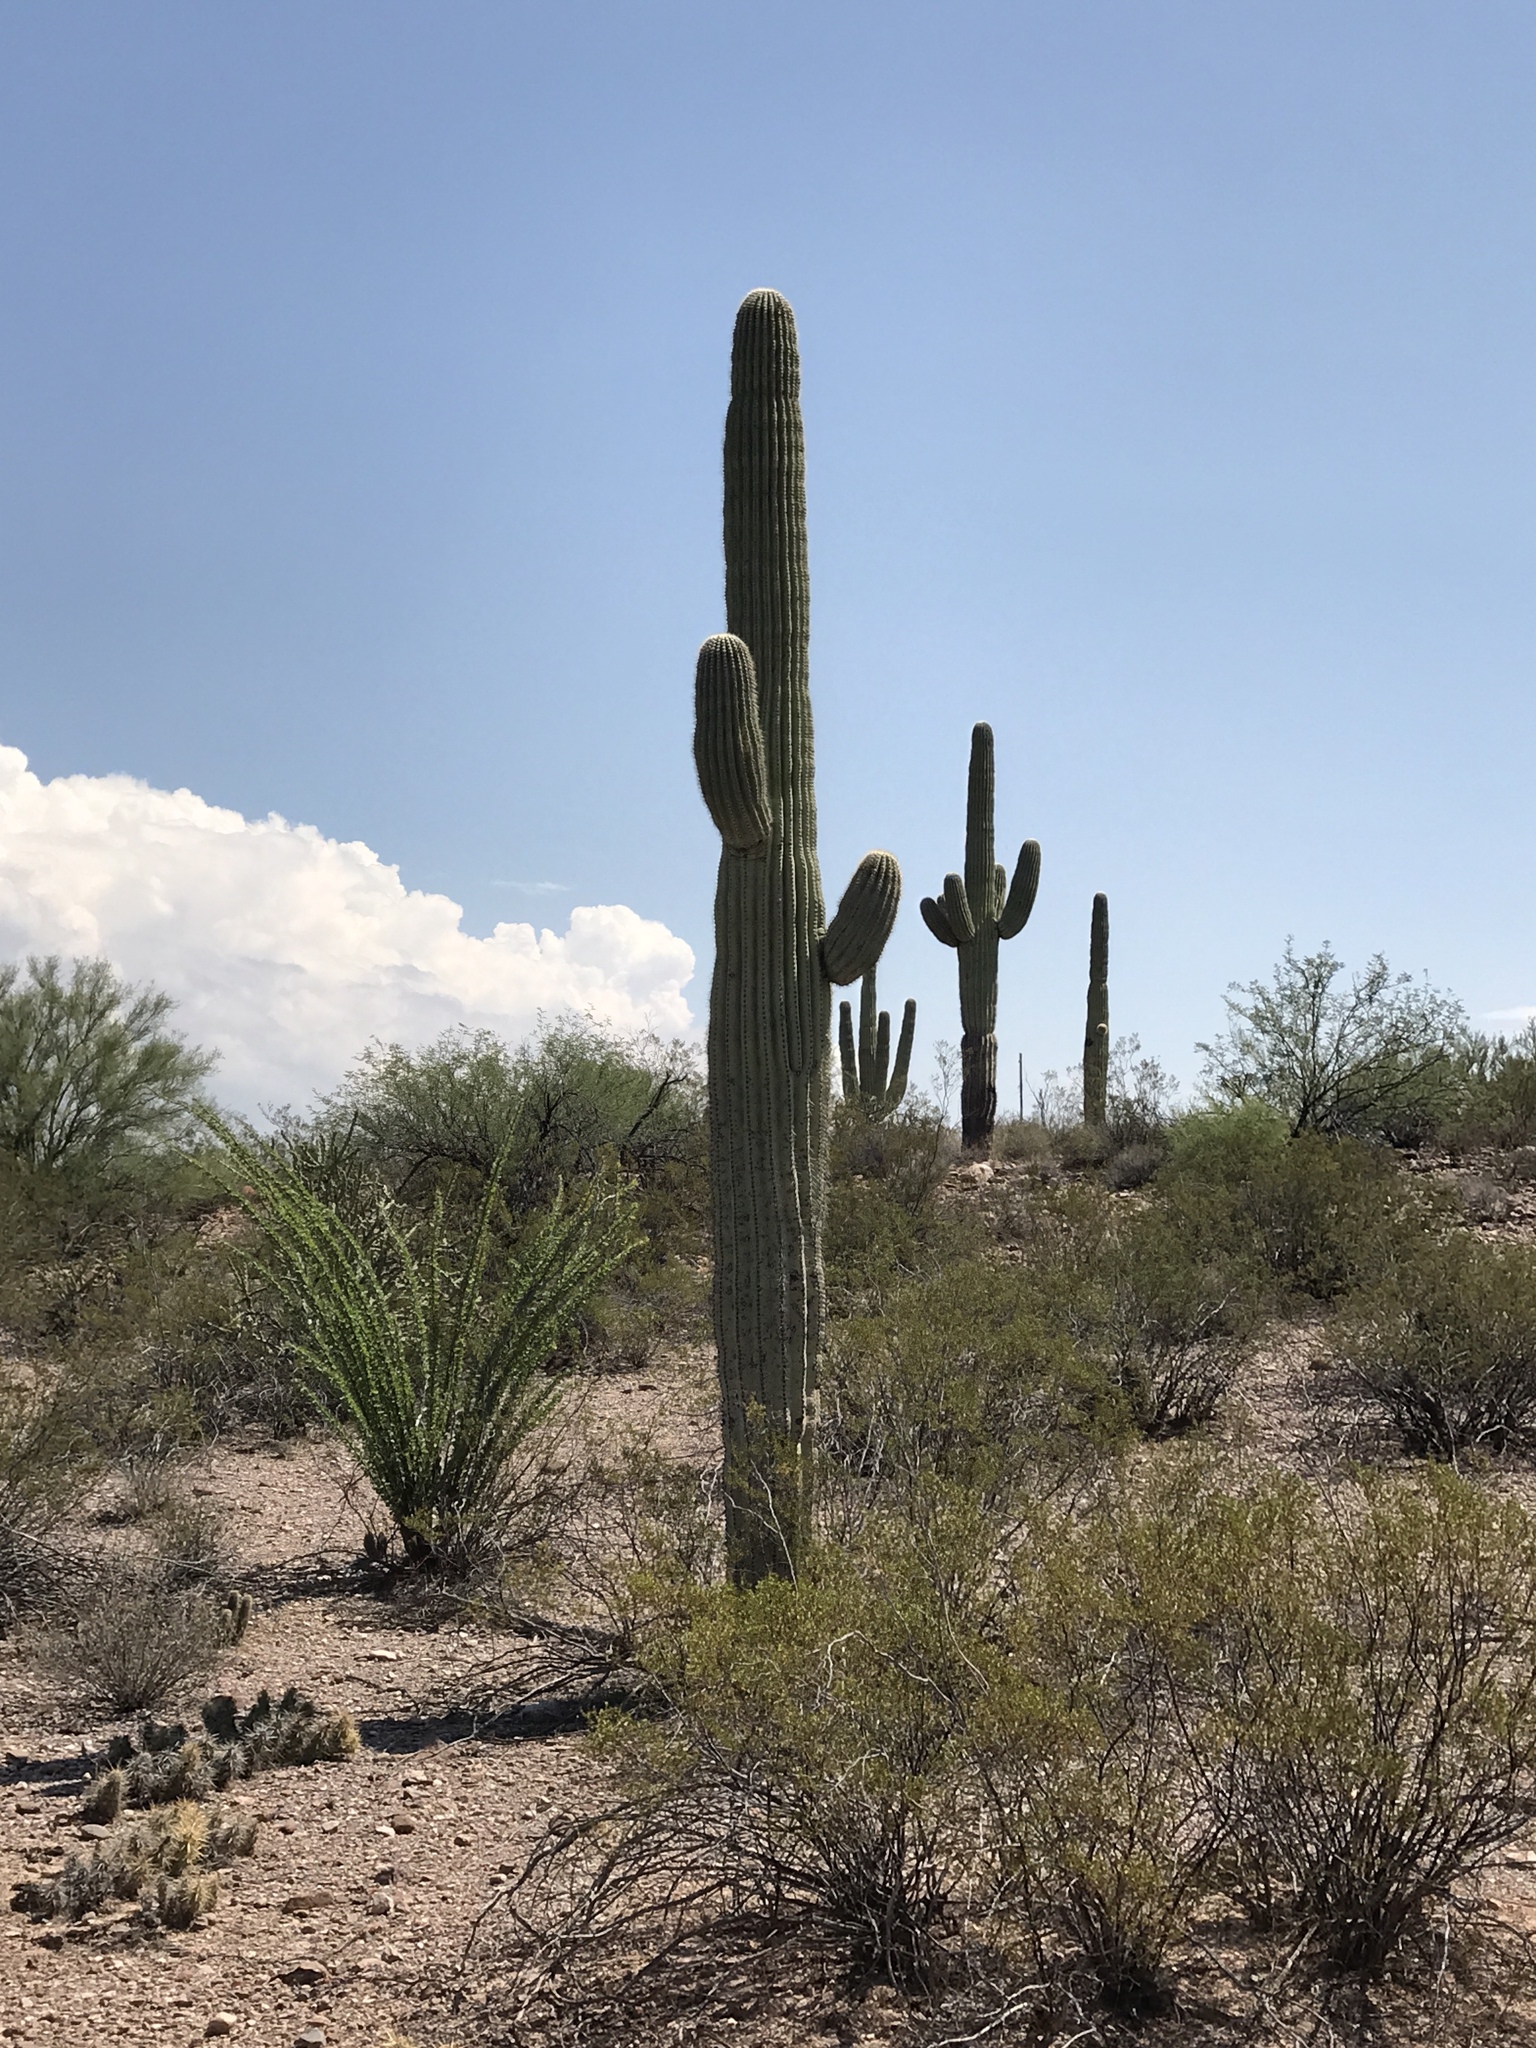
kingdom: Plantae
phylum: Tracheophyta
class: Magnoliopsida
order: Caryophyllales
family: Cactaceae
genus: Carnegiea
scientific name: Carnegiea gigantea
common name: Saguaro
